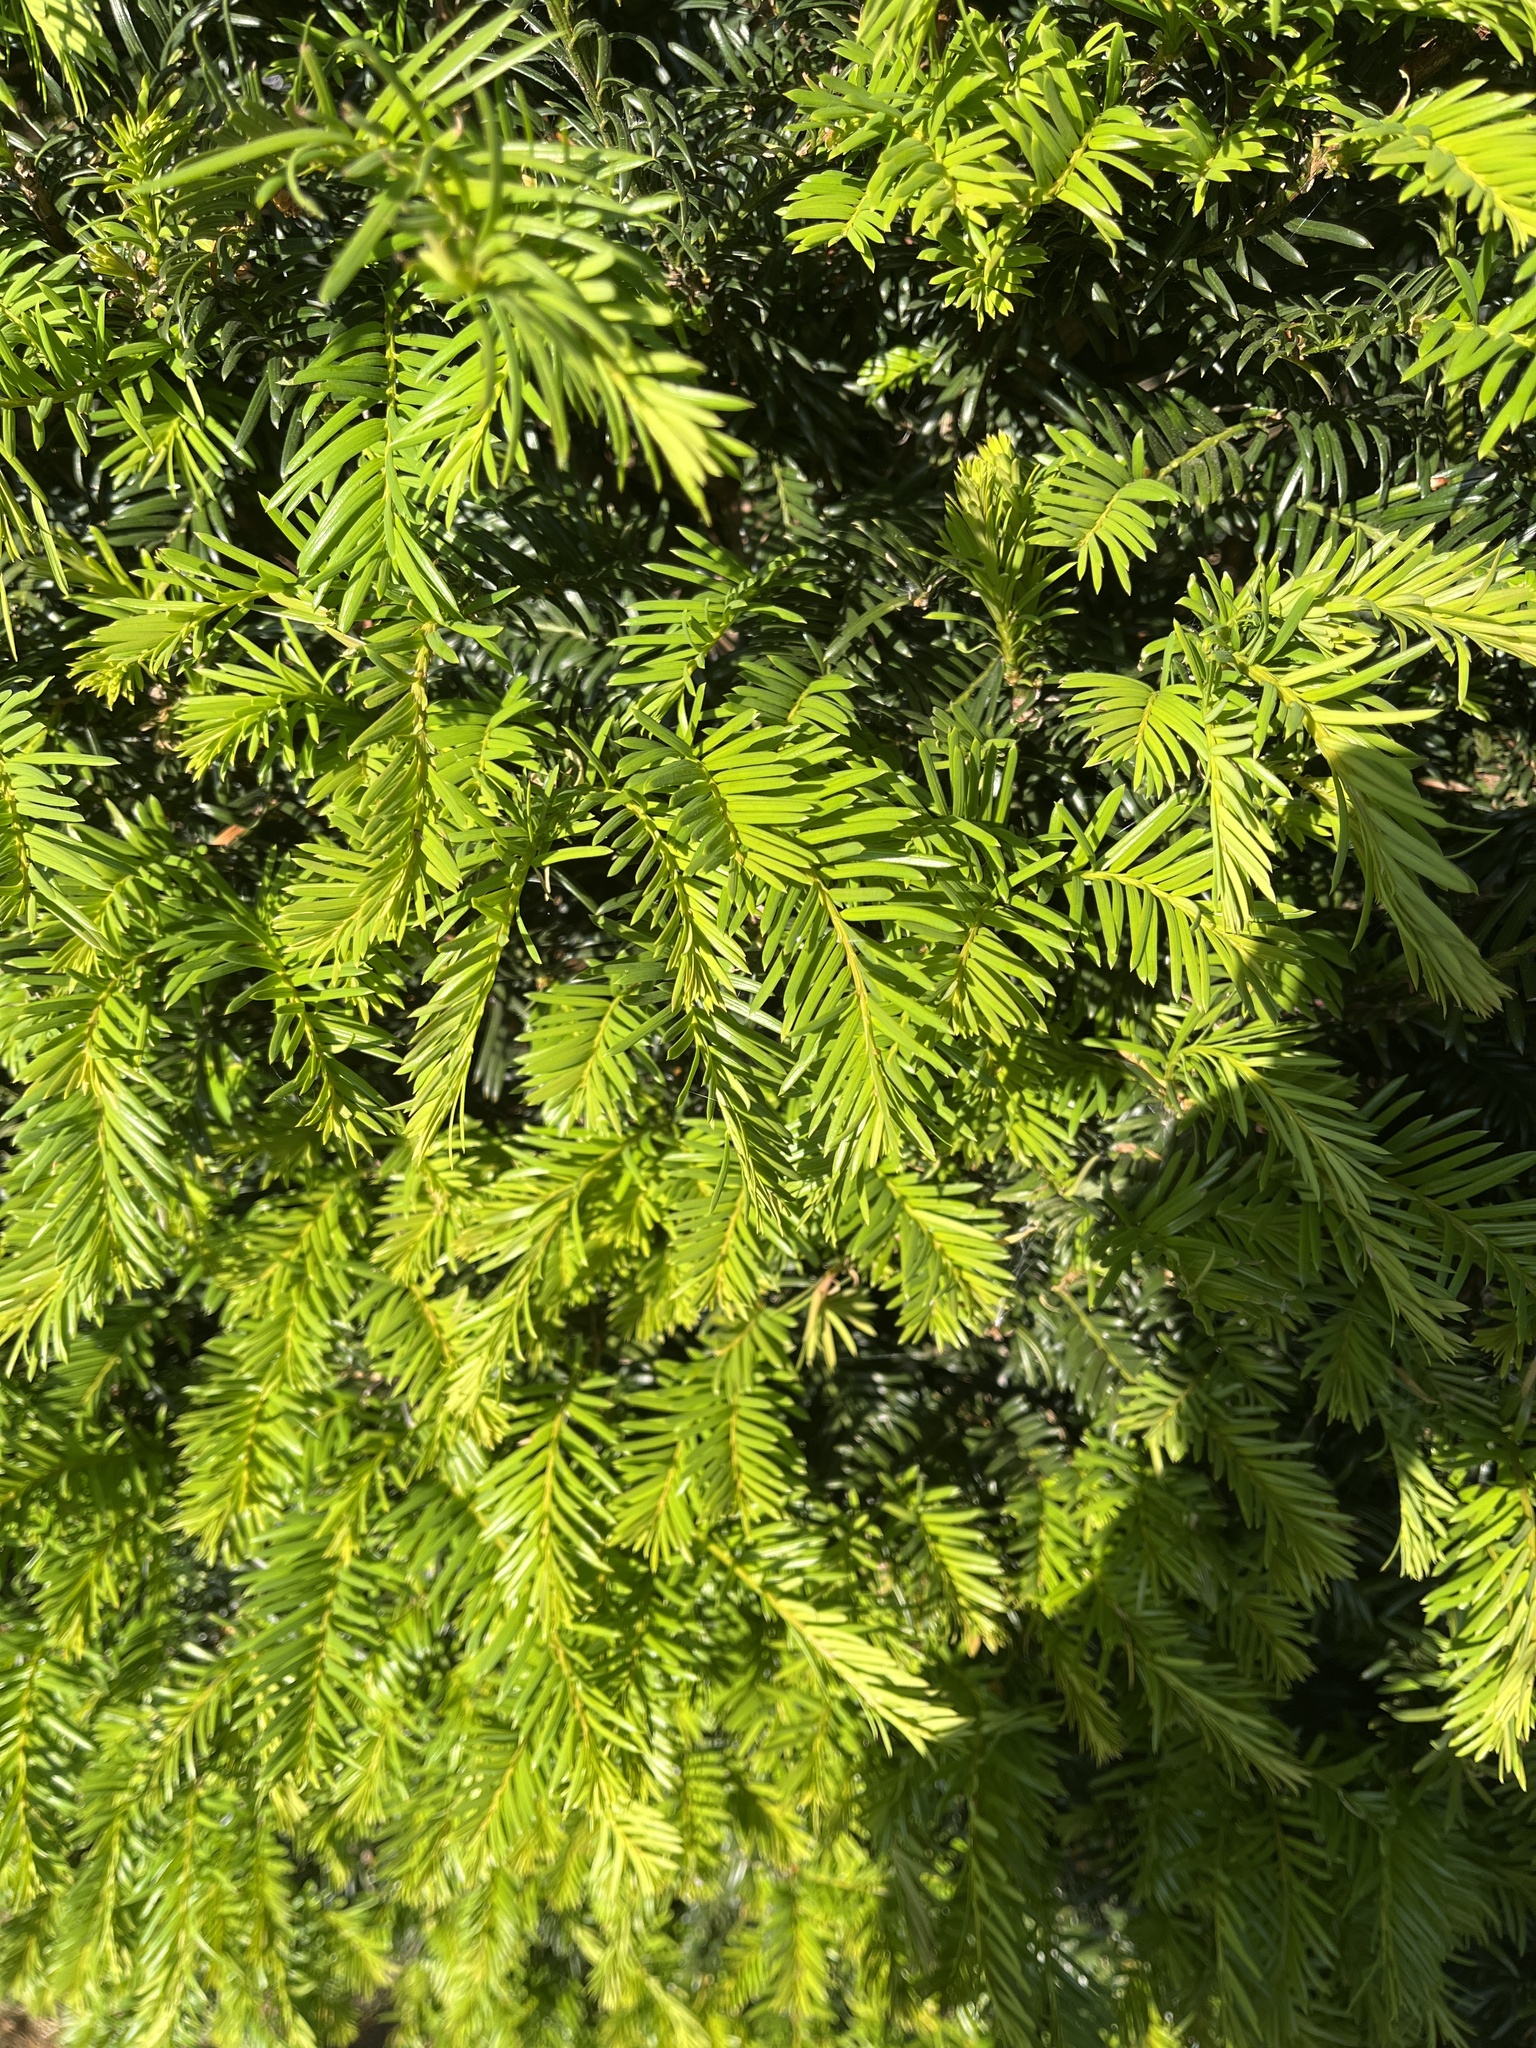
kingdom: Plantae
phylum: Tracheophyta
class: Pinopsida
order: Pinales
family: Taxaceae
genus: Taxus
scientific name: Taxus baccata
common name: Yew
